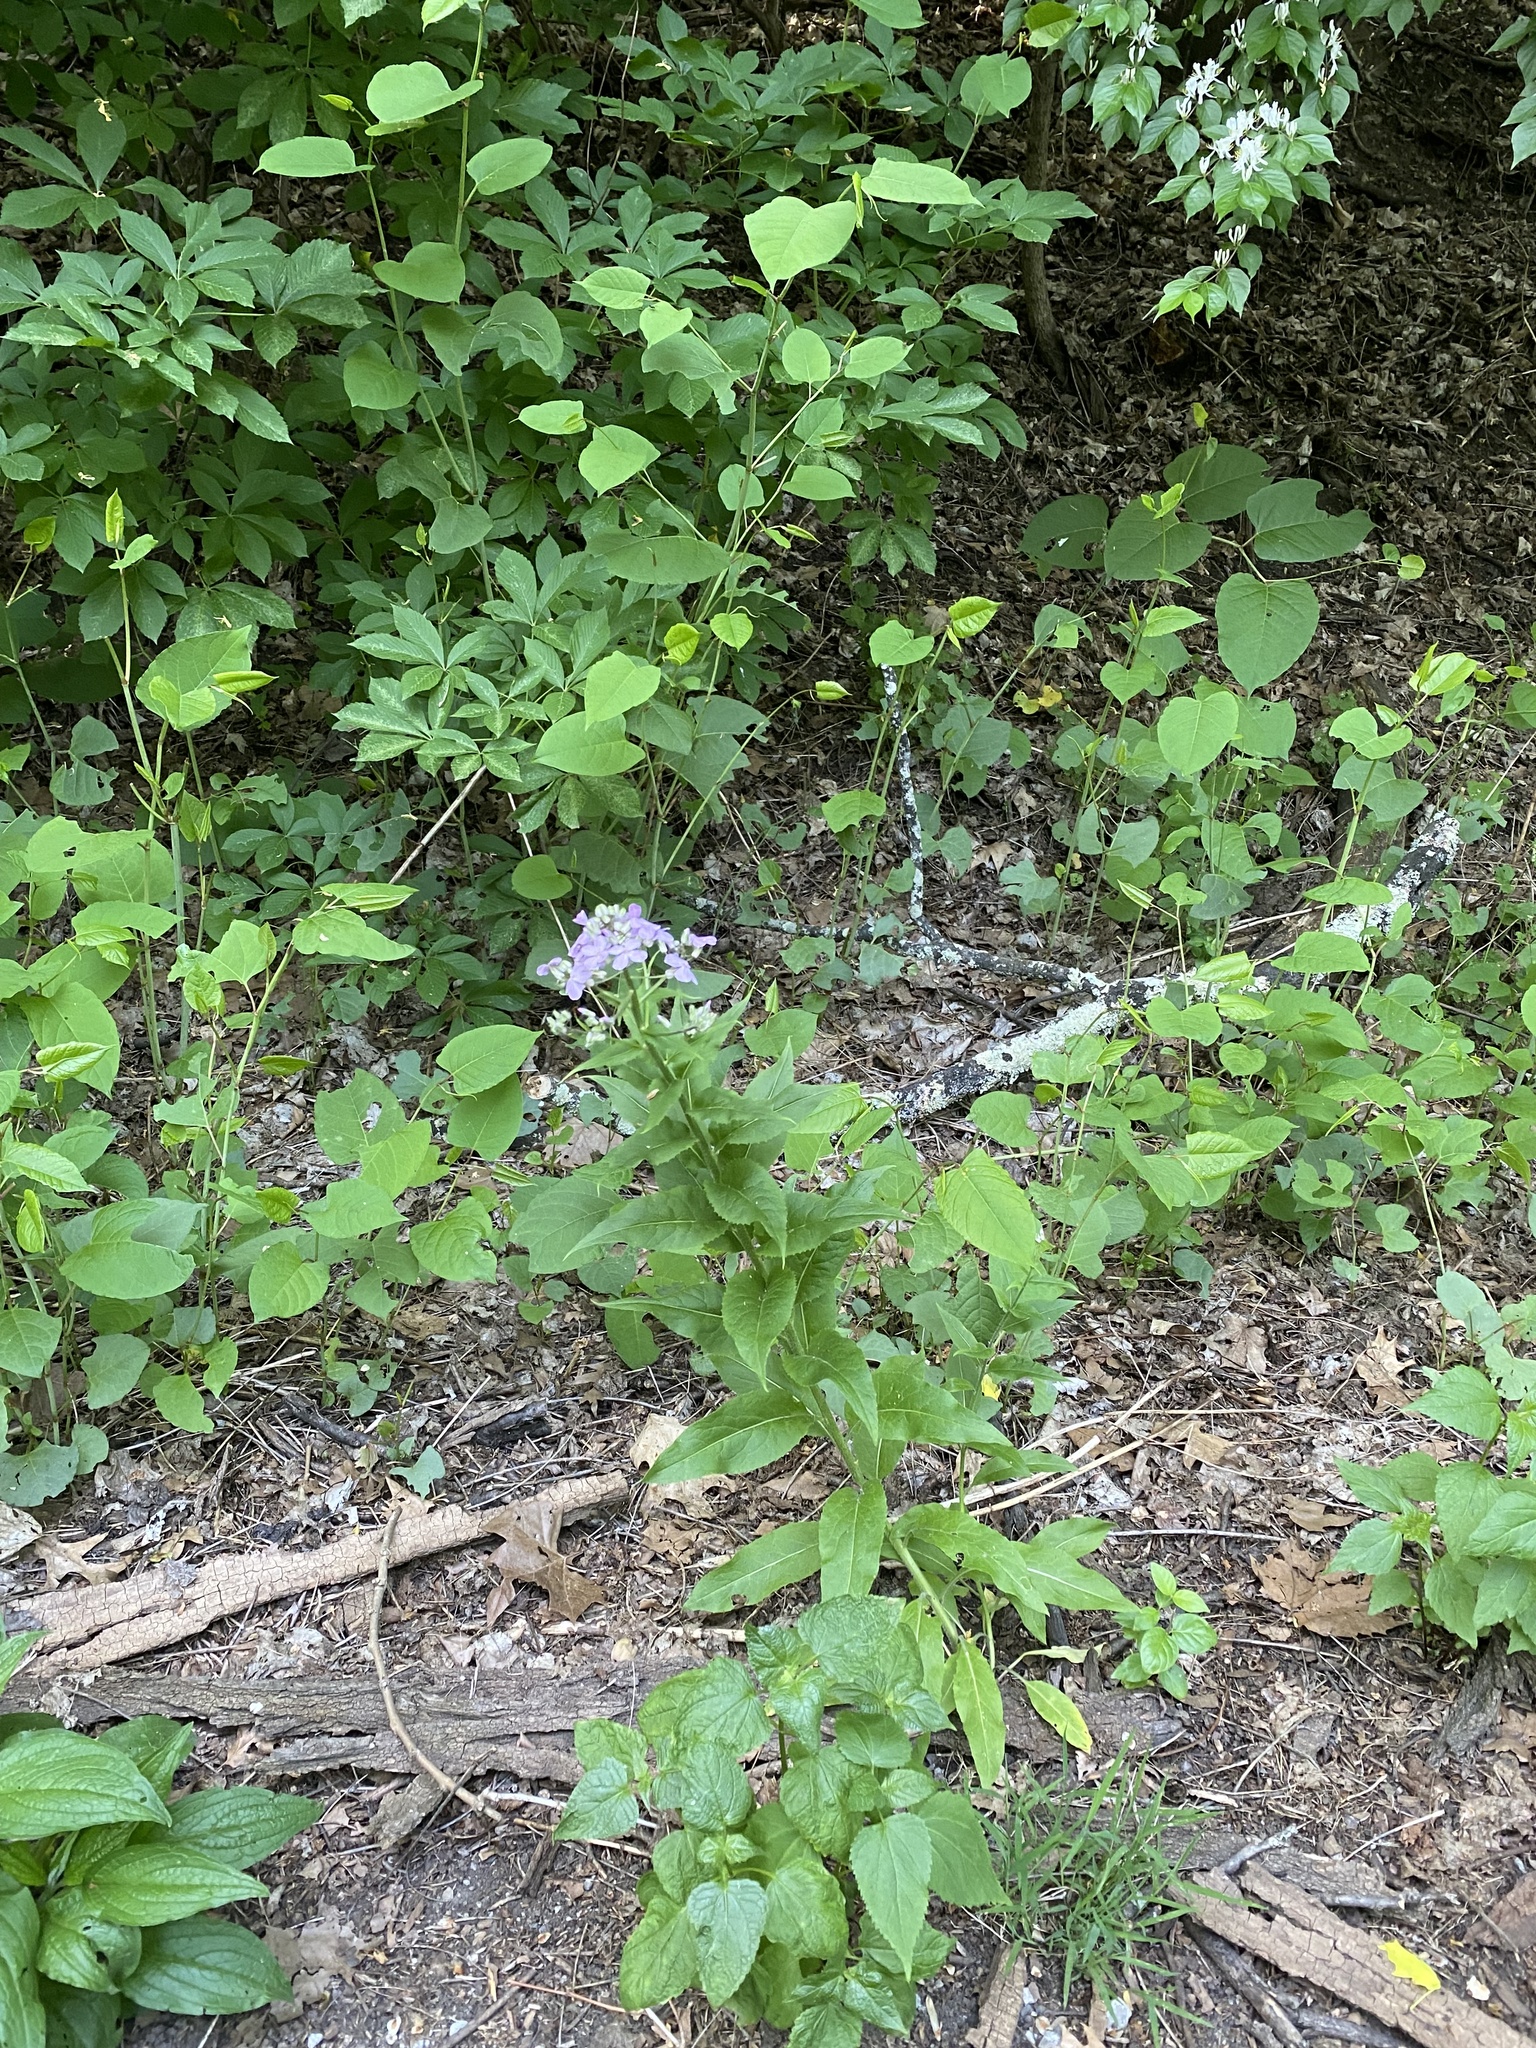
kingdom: Plantae
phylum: Tracheophyta
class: Magnoliopsida
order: Brassicales
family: Brassicaceae
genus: Hesperis
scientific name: Hesperis matronalis
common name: Dame's-violet
